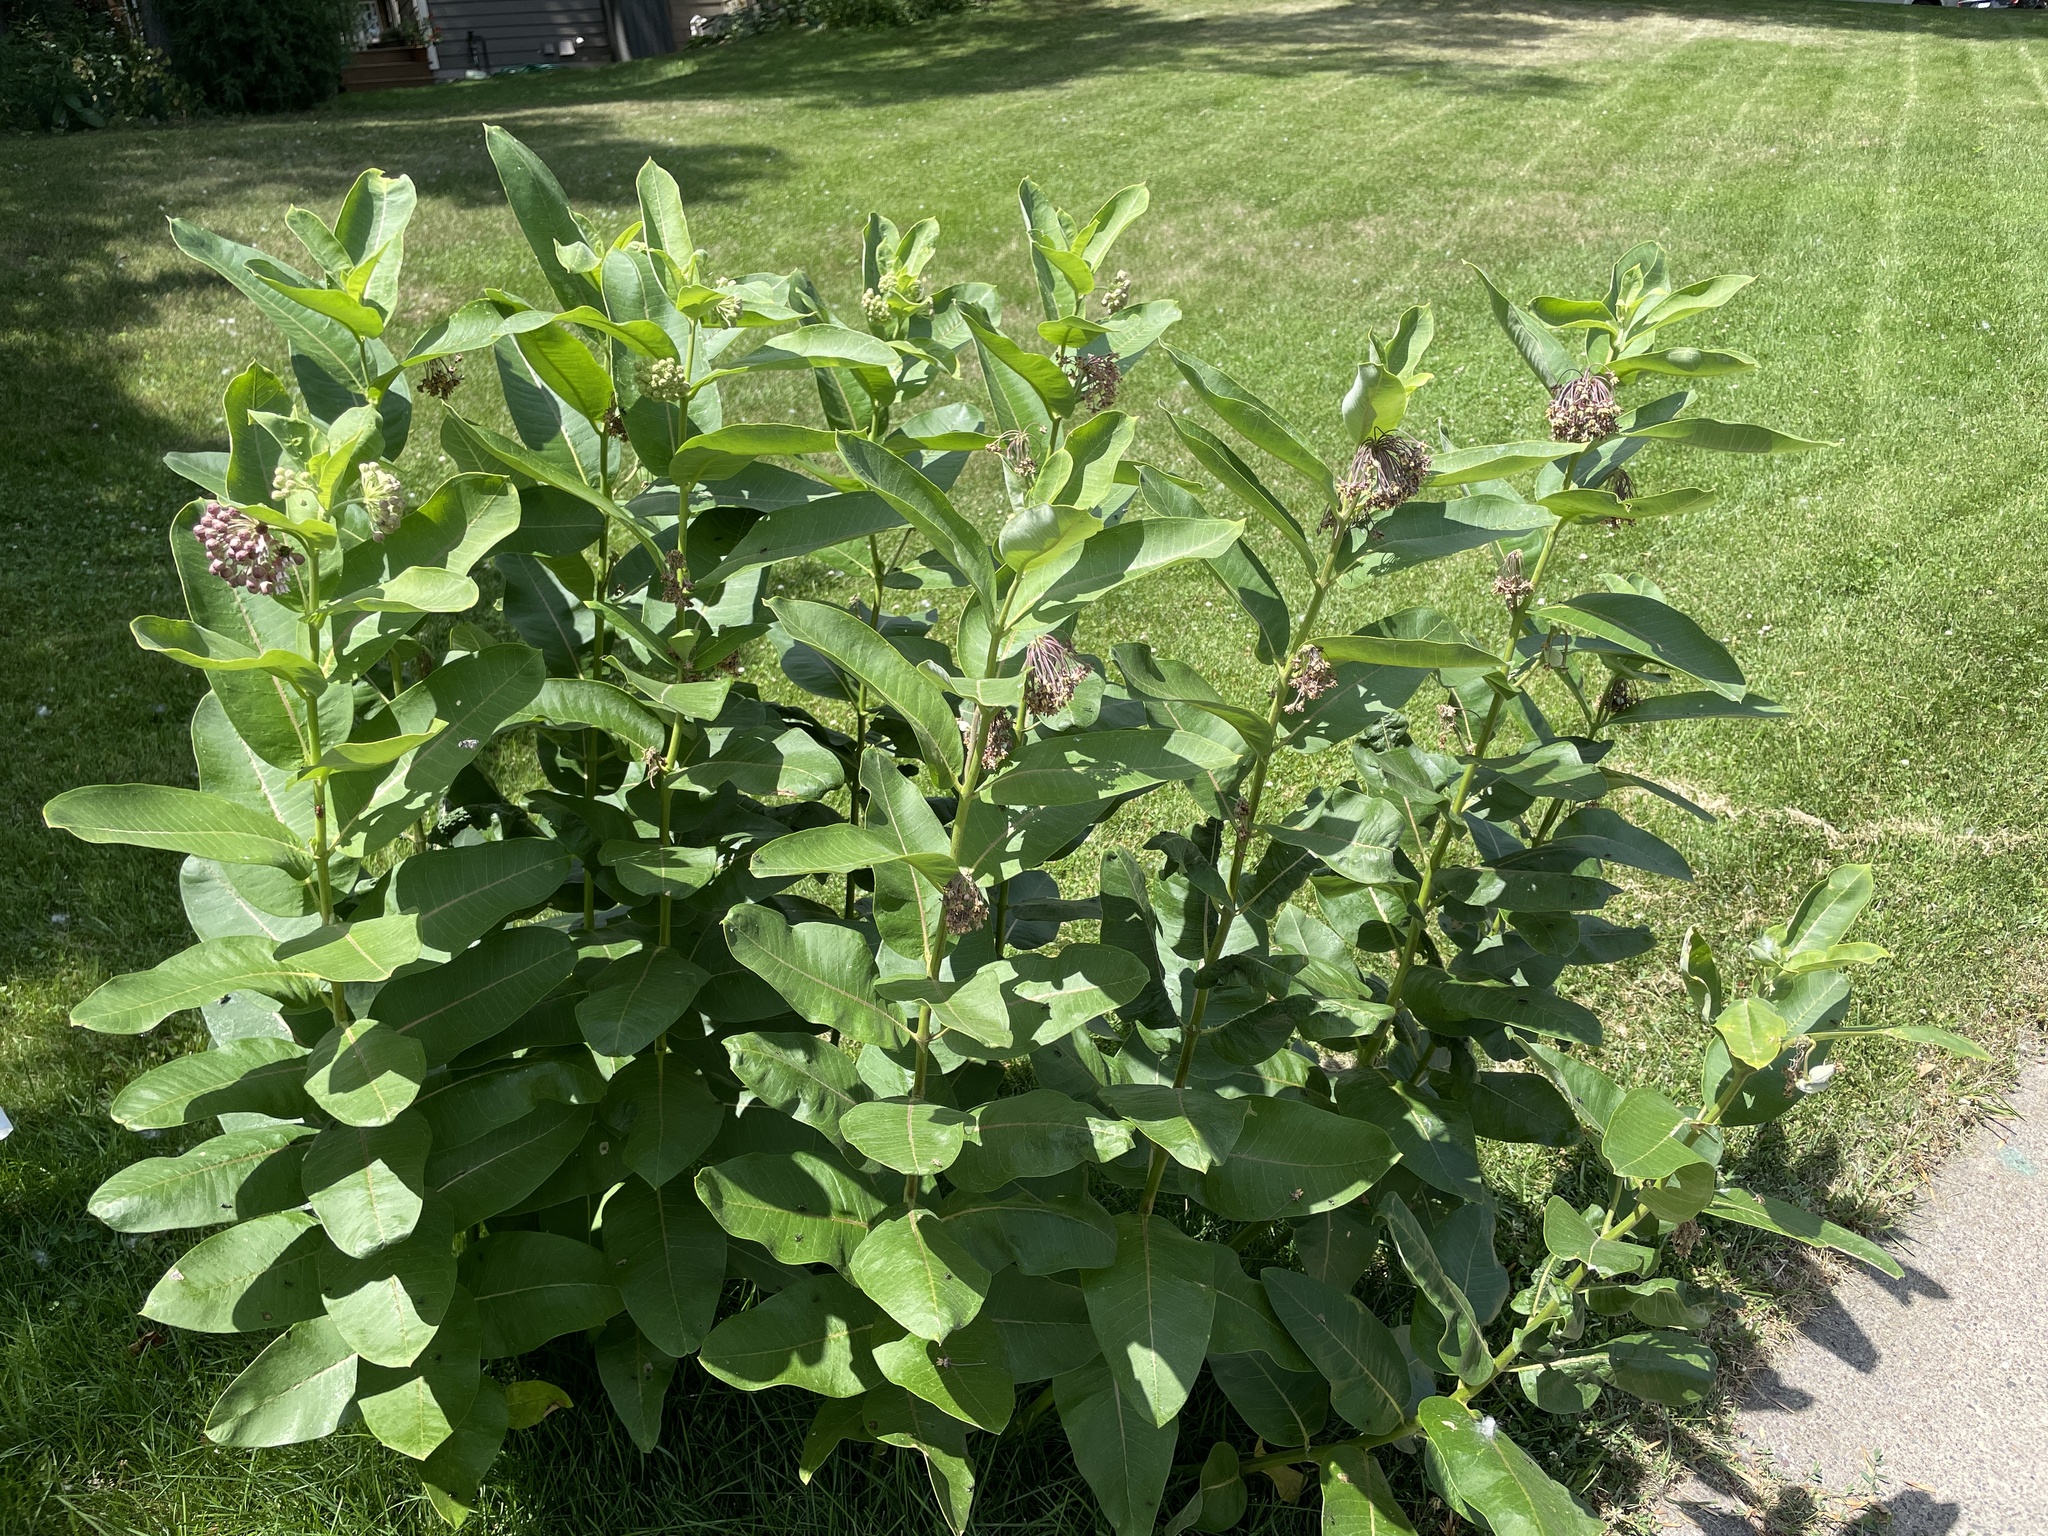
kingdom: Plantae
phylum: Tracheophyta
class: Magnoliopsida
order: Gentianales
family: Apocynaceae
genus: Asclepias
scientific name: Asclepias syriaca
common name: Common milkweed
